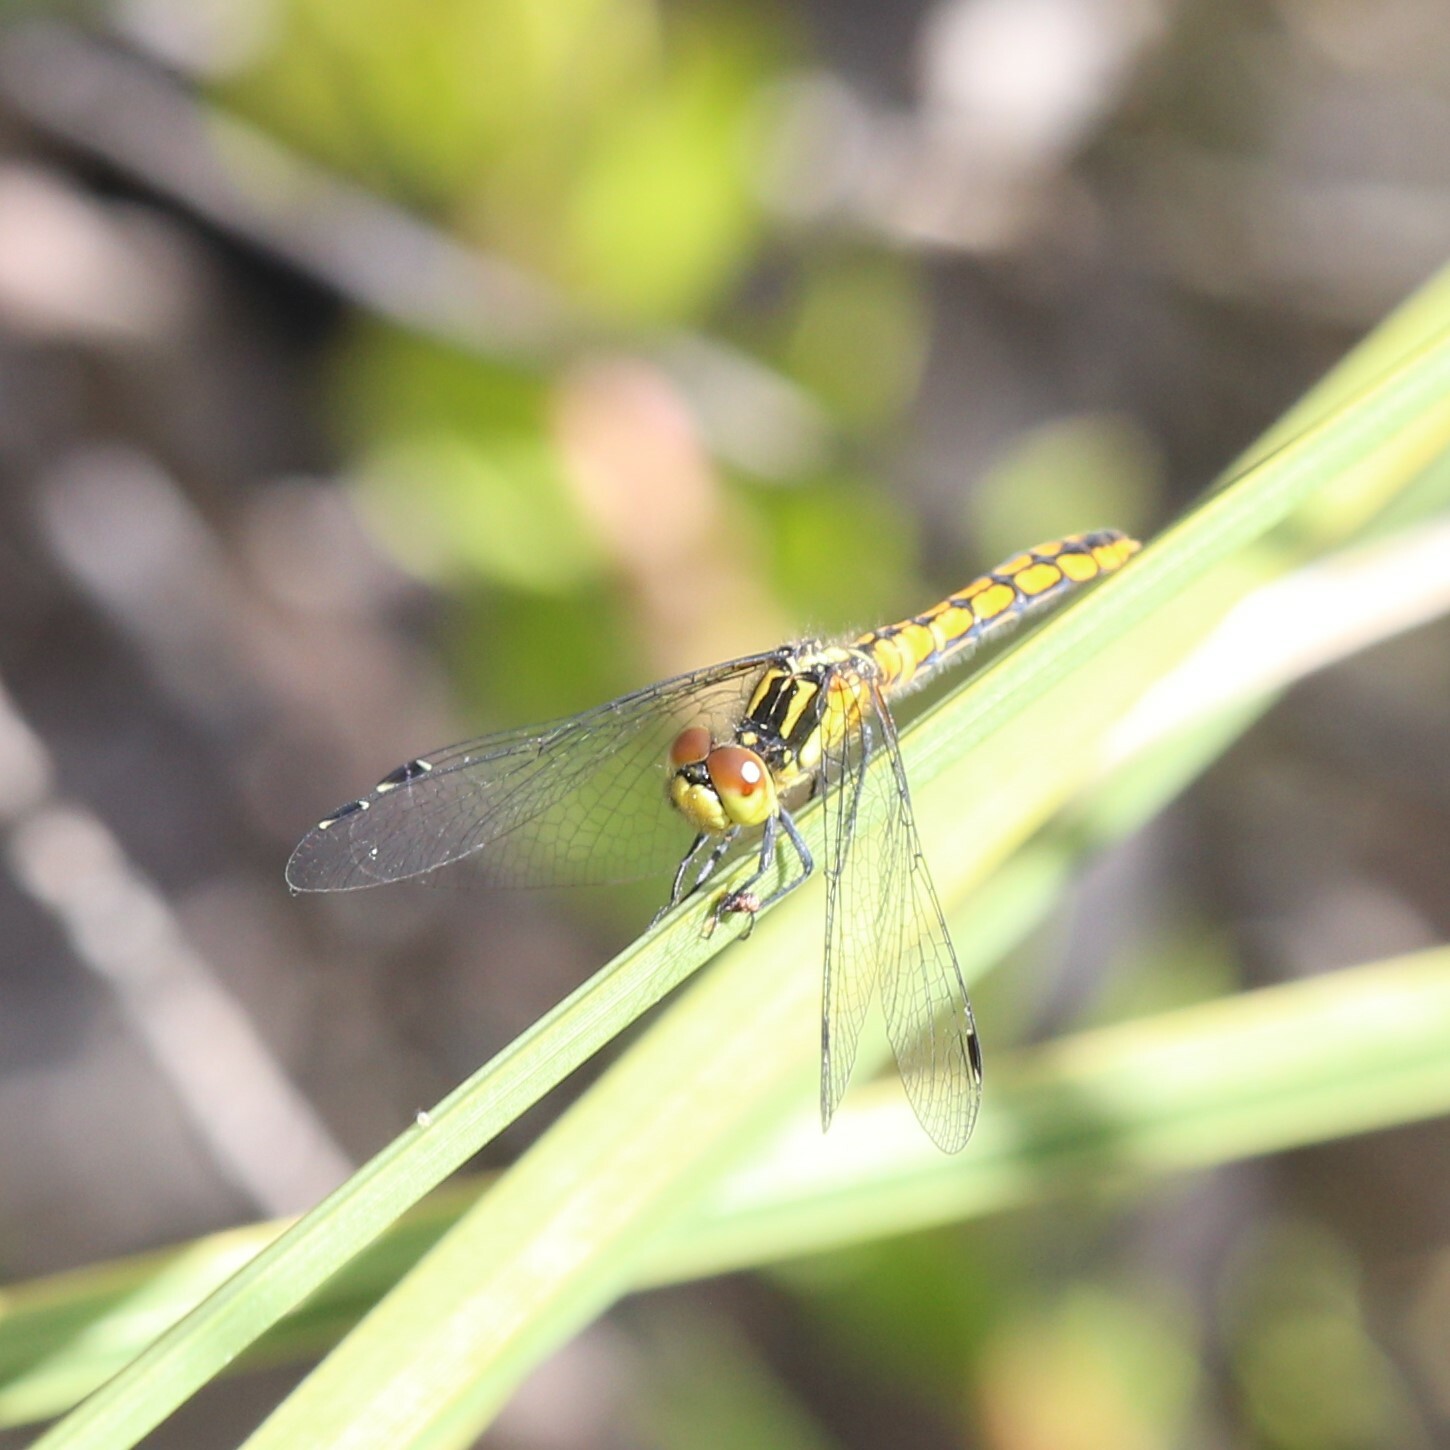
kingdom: Animalia
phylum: Arthropoda
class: Insecta
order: Odonata
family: Libellulidae
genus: Nannophya
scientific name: Nannophya occidentalis
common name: Western pygmyfly
